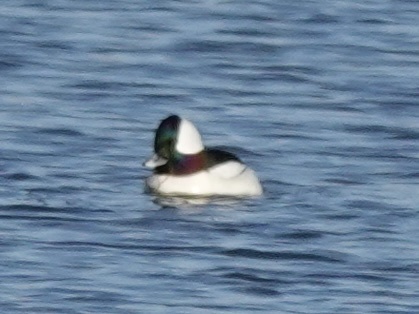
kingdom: Animalia
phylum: Chordata
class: Aves
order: Anseriformes
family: Anatidae
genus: Bucephala
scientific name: Bucephala albeola
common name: Bufflehead
